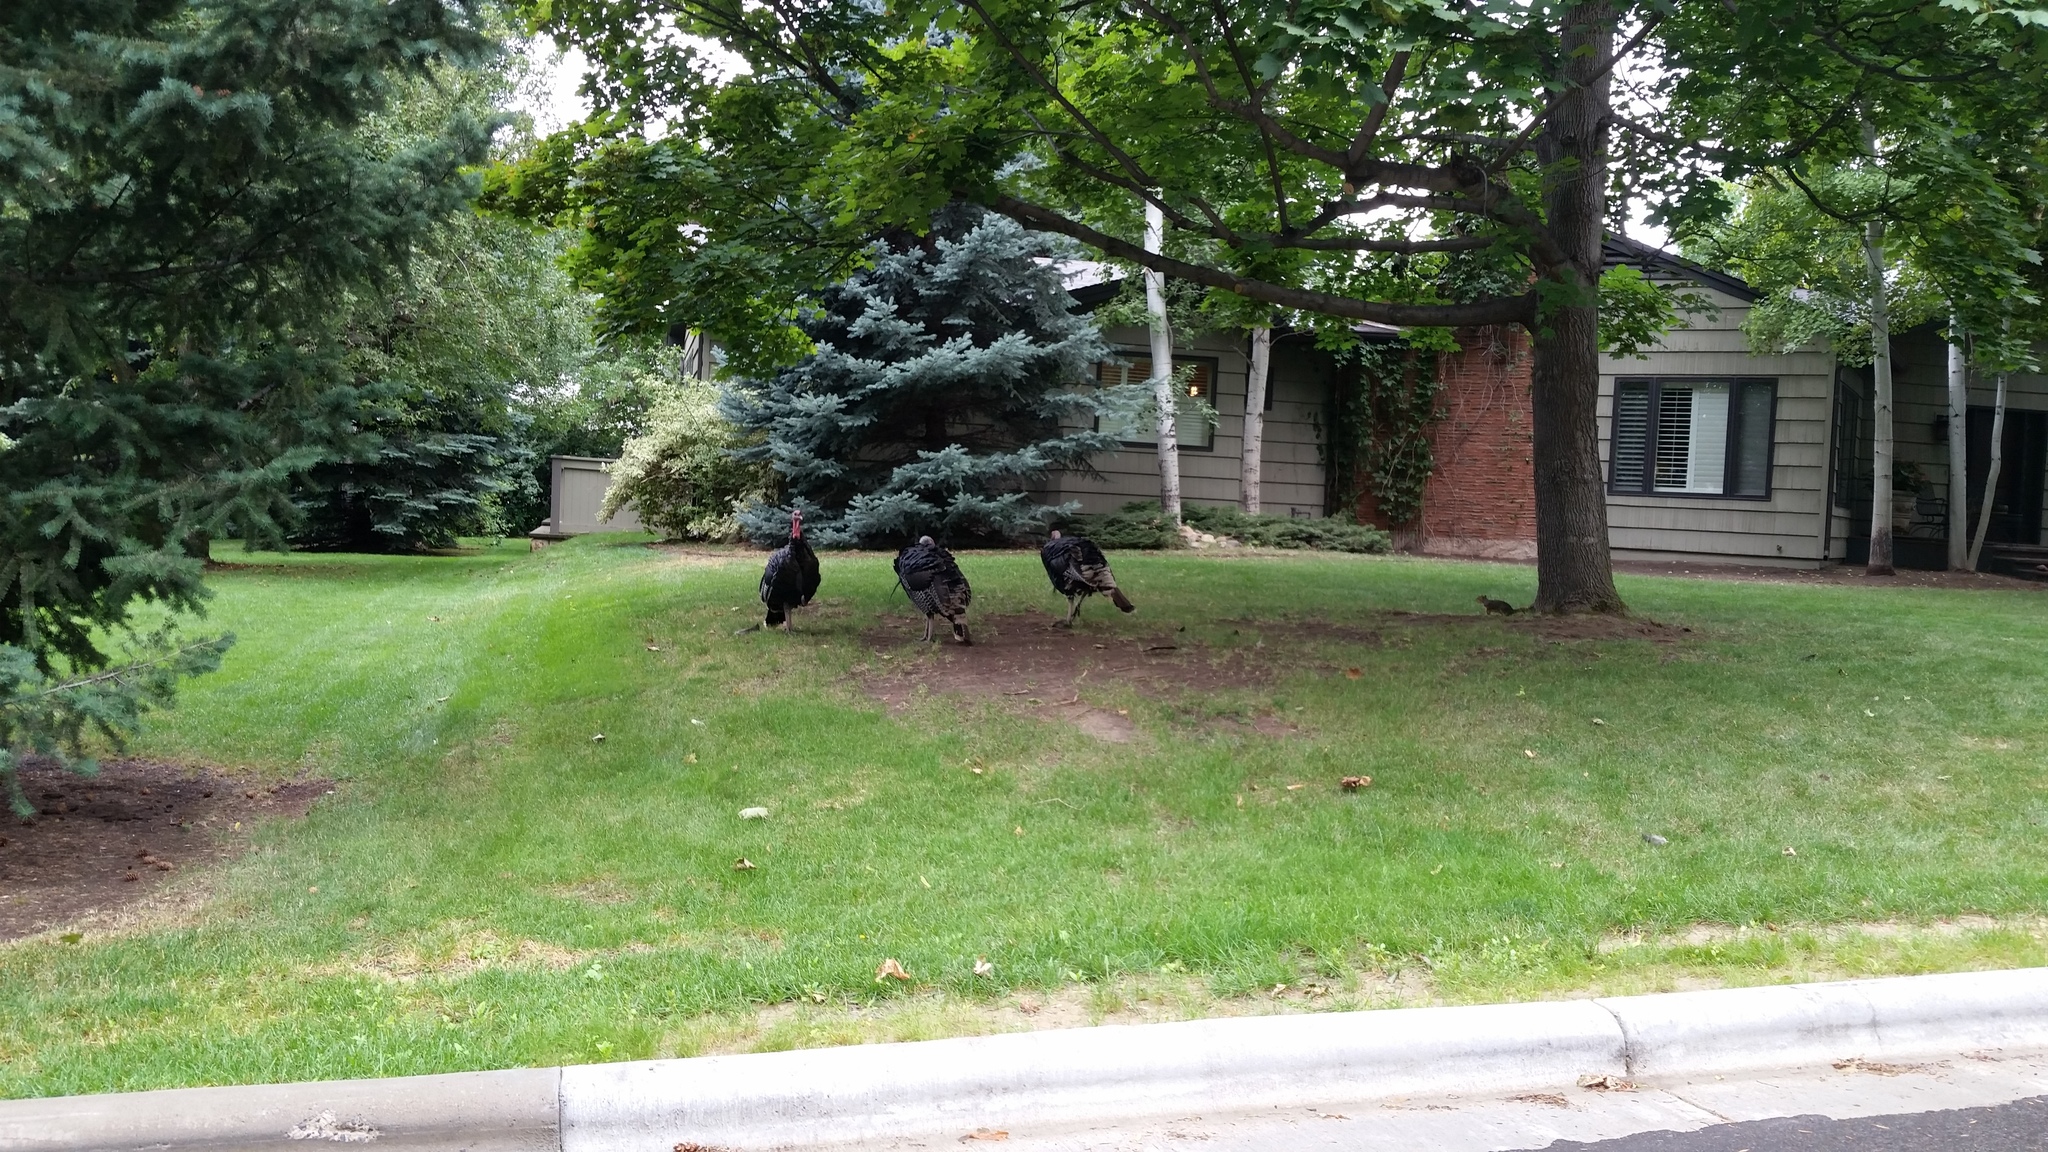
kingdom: Animalia
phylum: Chordata
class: Aves
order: Galliformes
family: Phasianidae
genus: Meleagris
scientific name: Meleagris gallopavo
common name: Wild turkey
